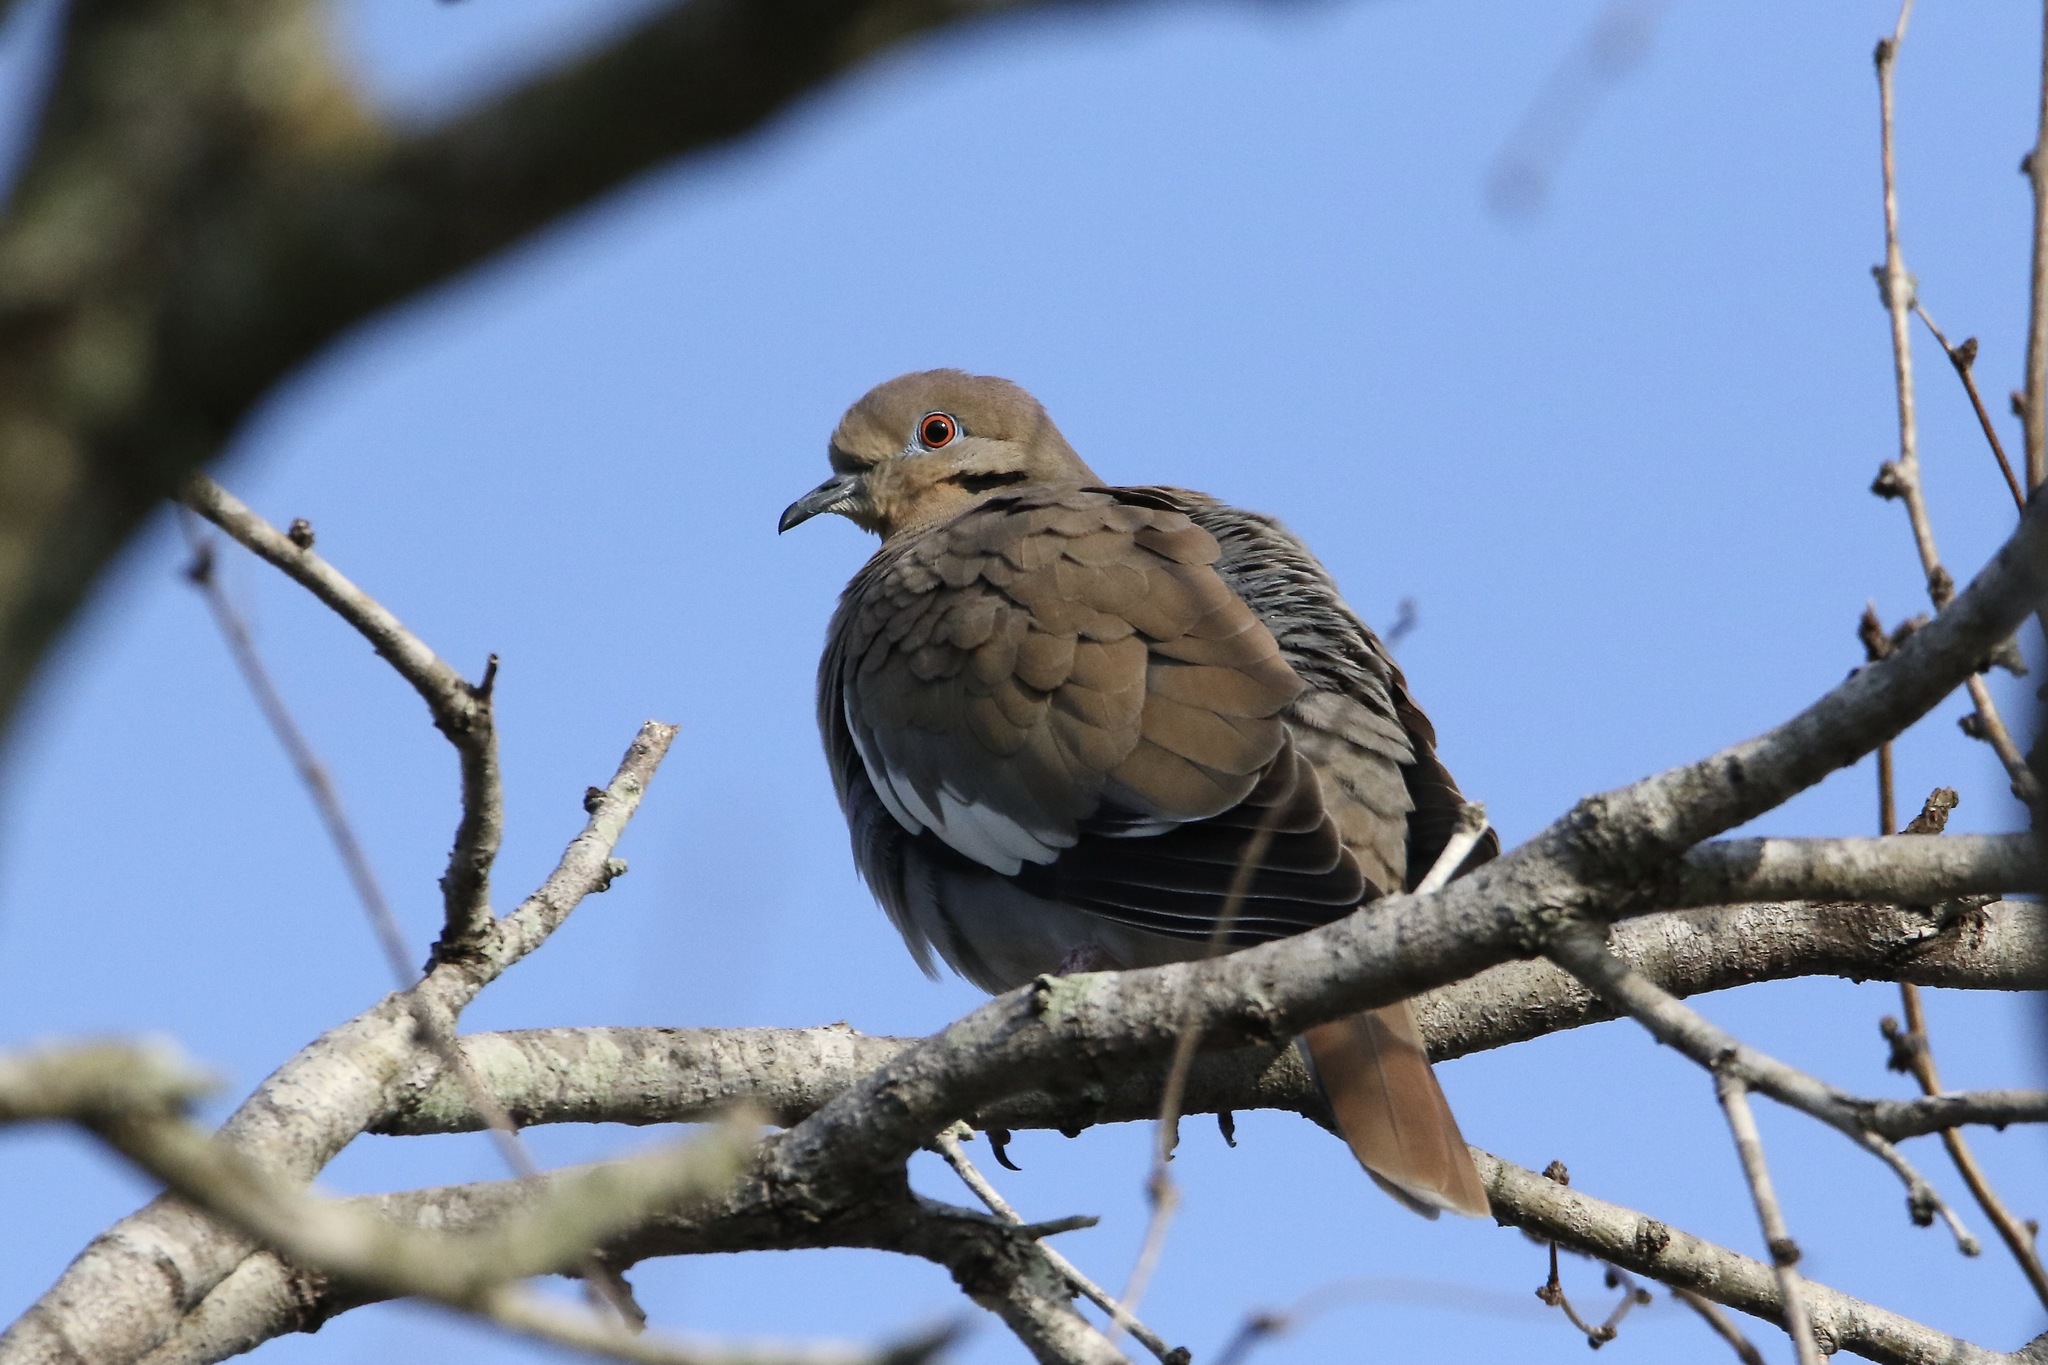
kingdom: Animalia
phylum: Chordata
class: Aves
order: Columbiformes
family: Columbidae
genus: Zenaida
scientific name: Zenaida asiatica
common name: White-winged dove
